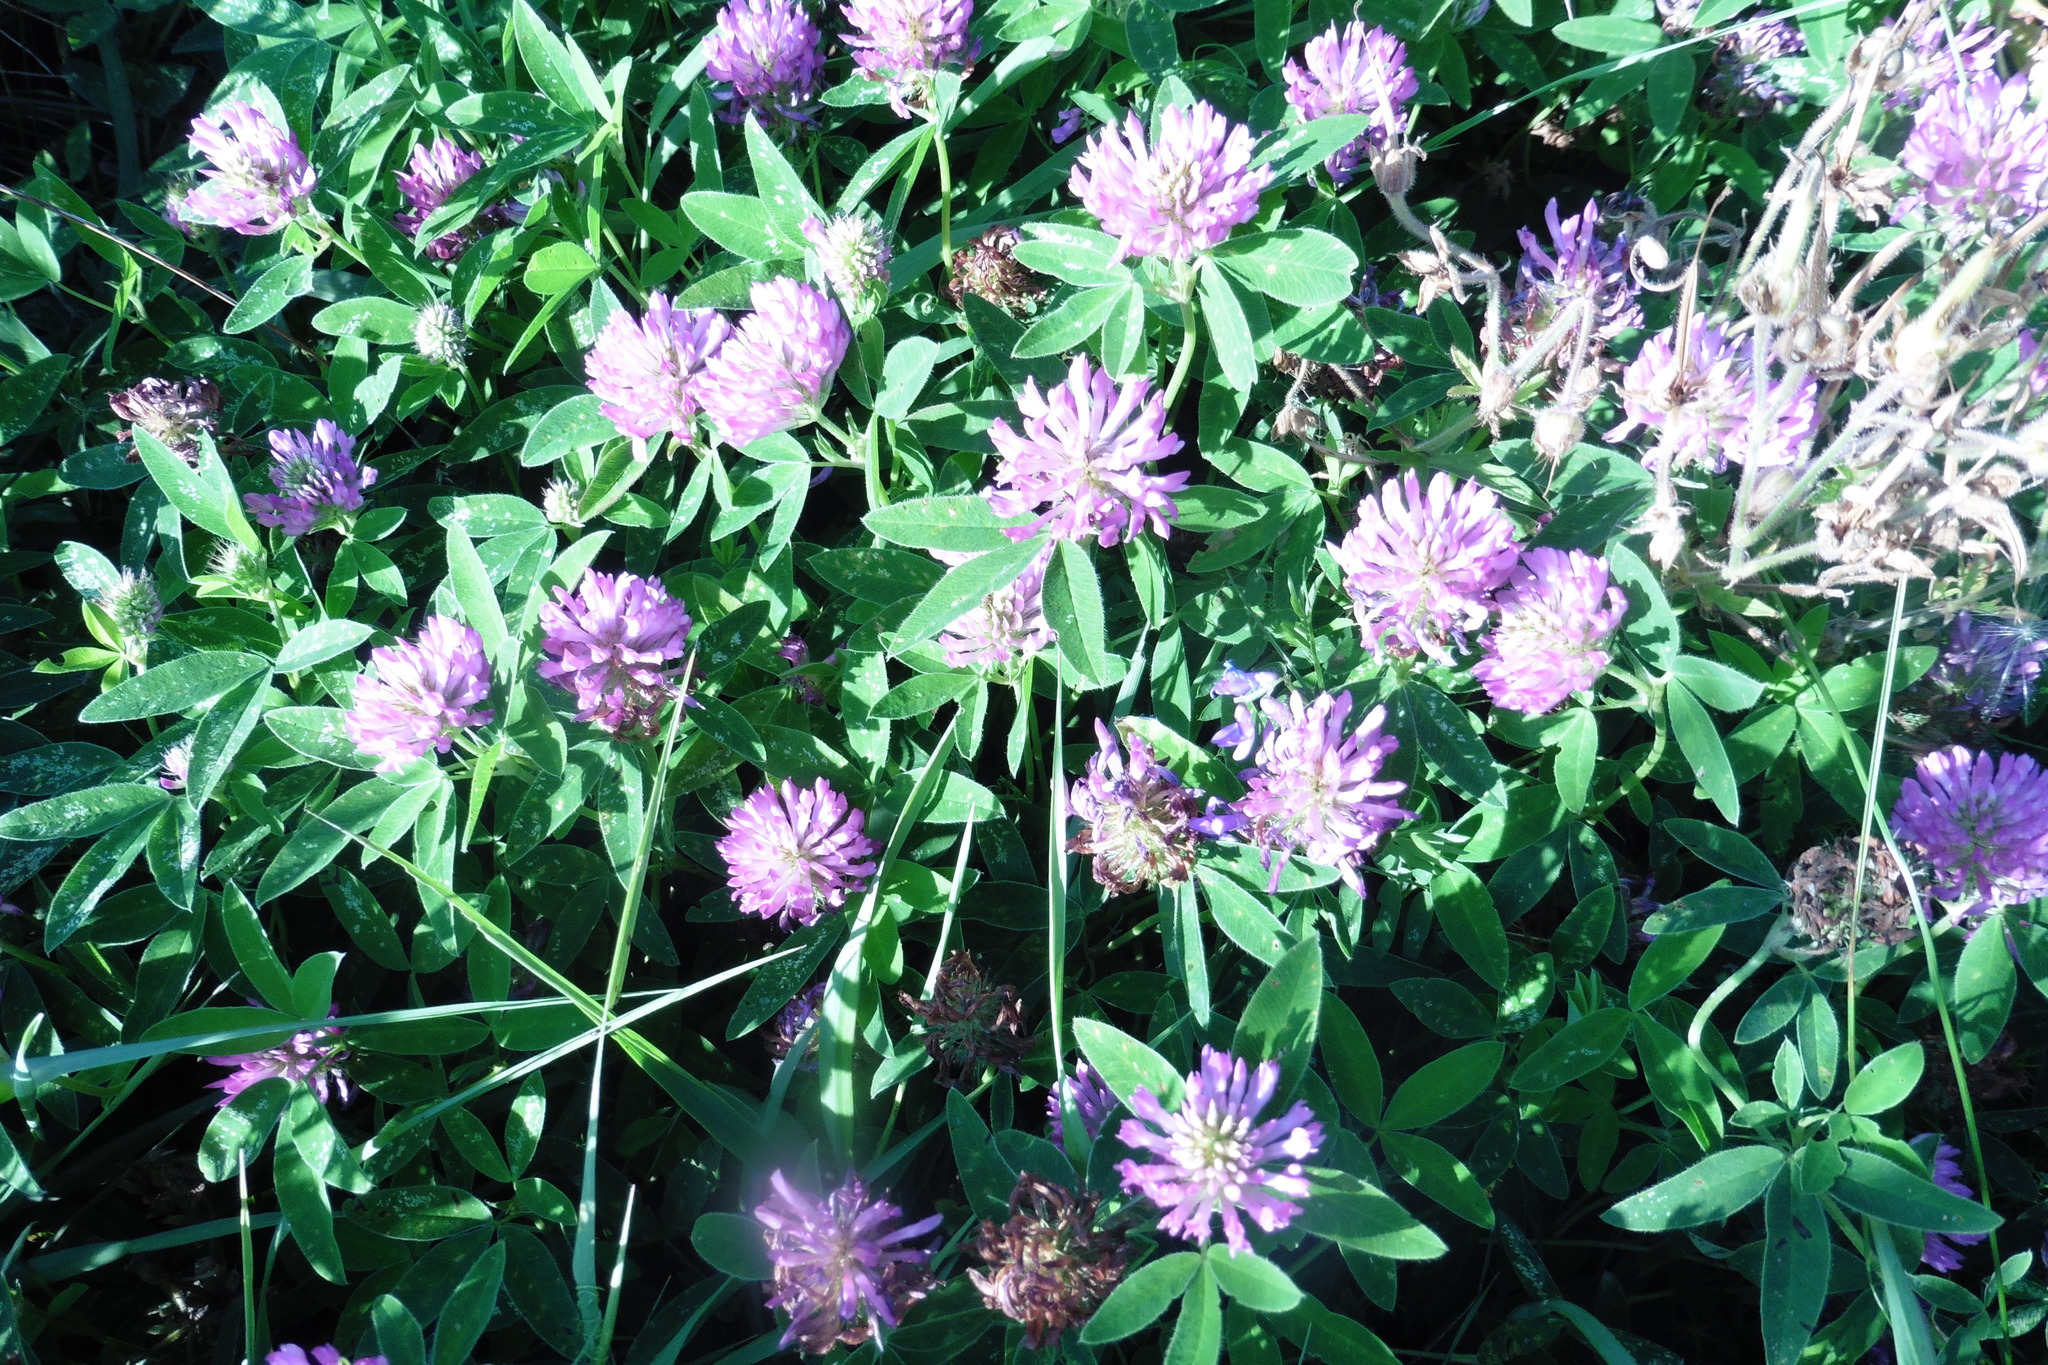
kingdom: Plantae
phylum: Tracheophyta
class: Magnoliopsida
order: Fabales
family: Fabaceae
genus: Trifolium
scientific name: Trifolium medium
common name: Zigzag clover
